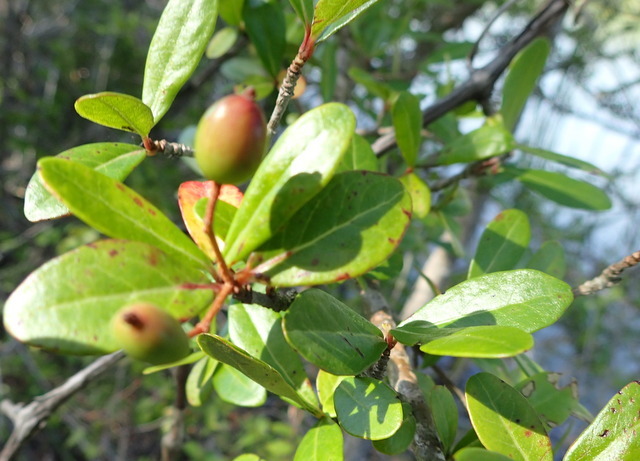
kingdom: Plantae
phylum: Tracheophyta
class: Magnoliopsida
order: Dipsacales
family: Viburnaceae
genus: Viburnum
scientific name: Viburnum obovatum
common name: Walter's viburnum
